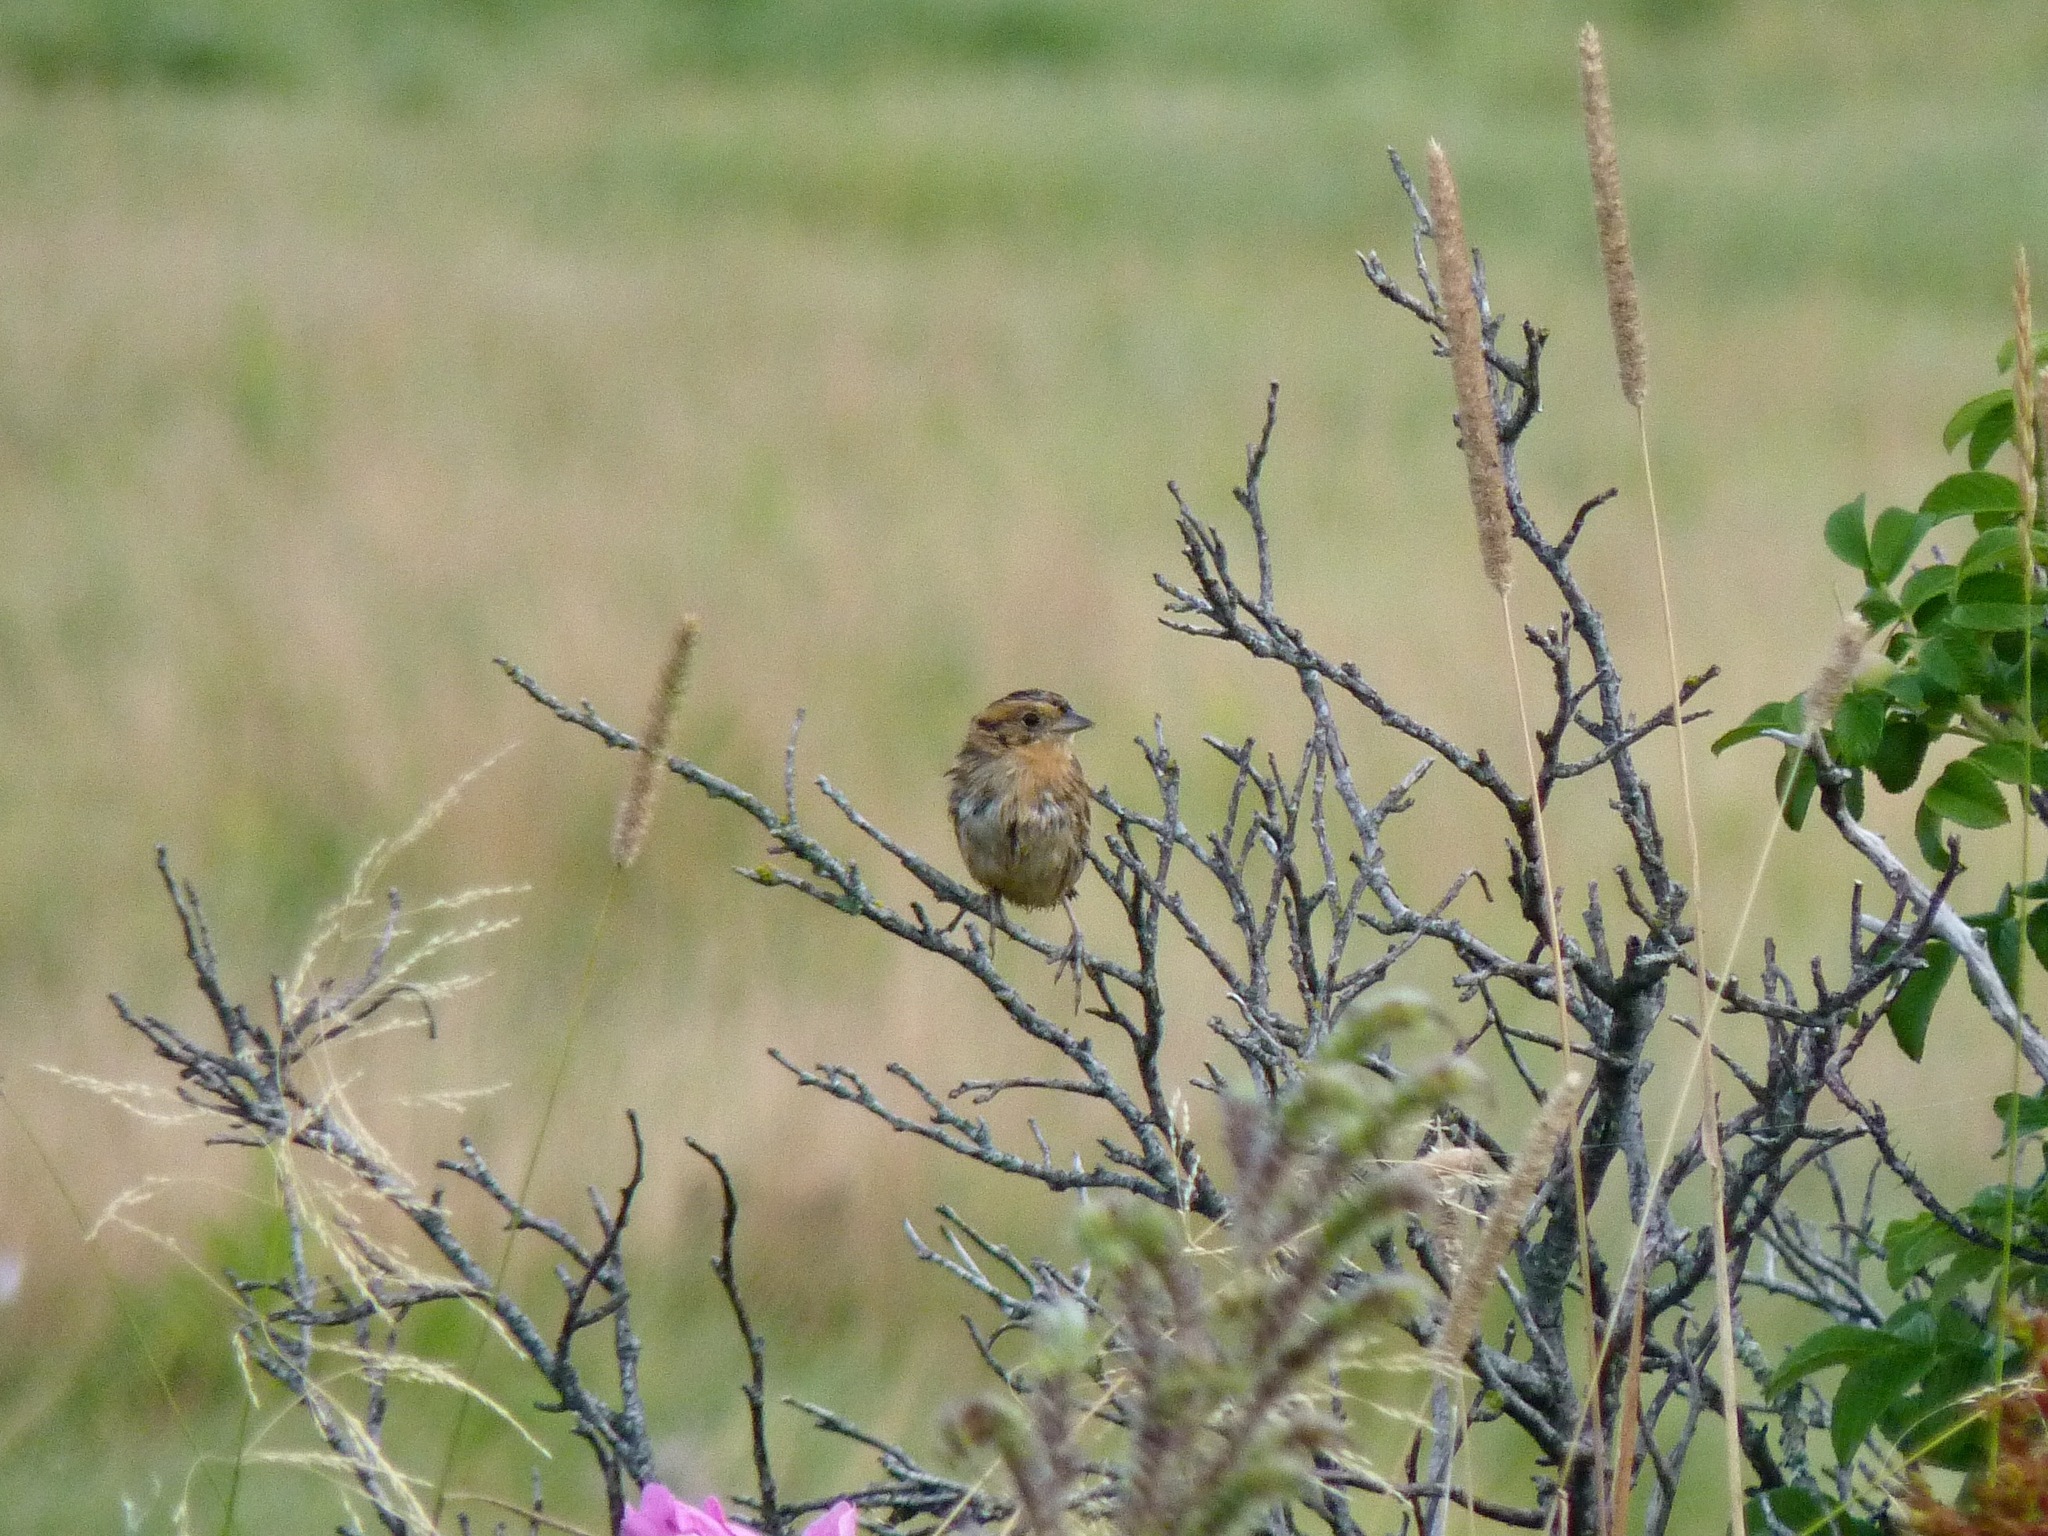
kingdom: Animalia
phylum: Chordata
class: Aves
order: Passeriformes
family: Passerellidae
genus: Ammospiza
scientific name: Ammospiza nelsoni
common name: Nelson's sparrow
